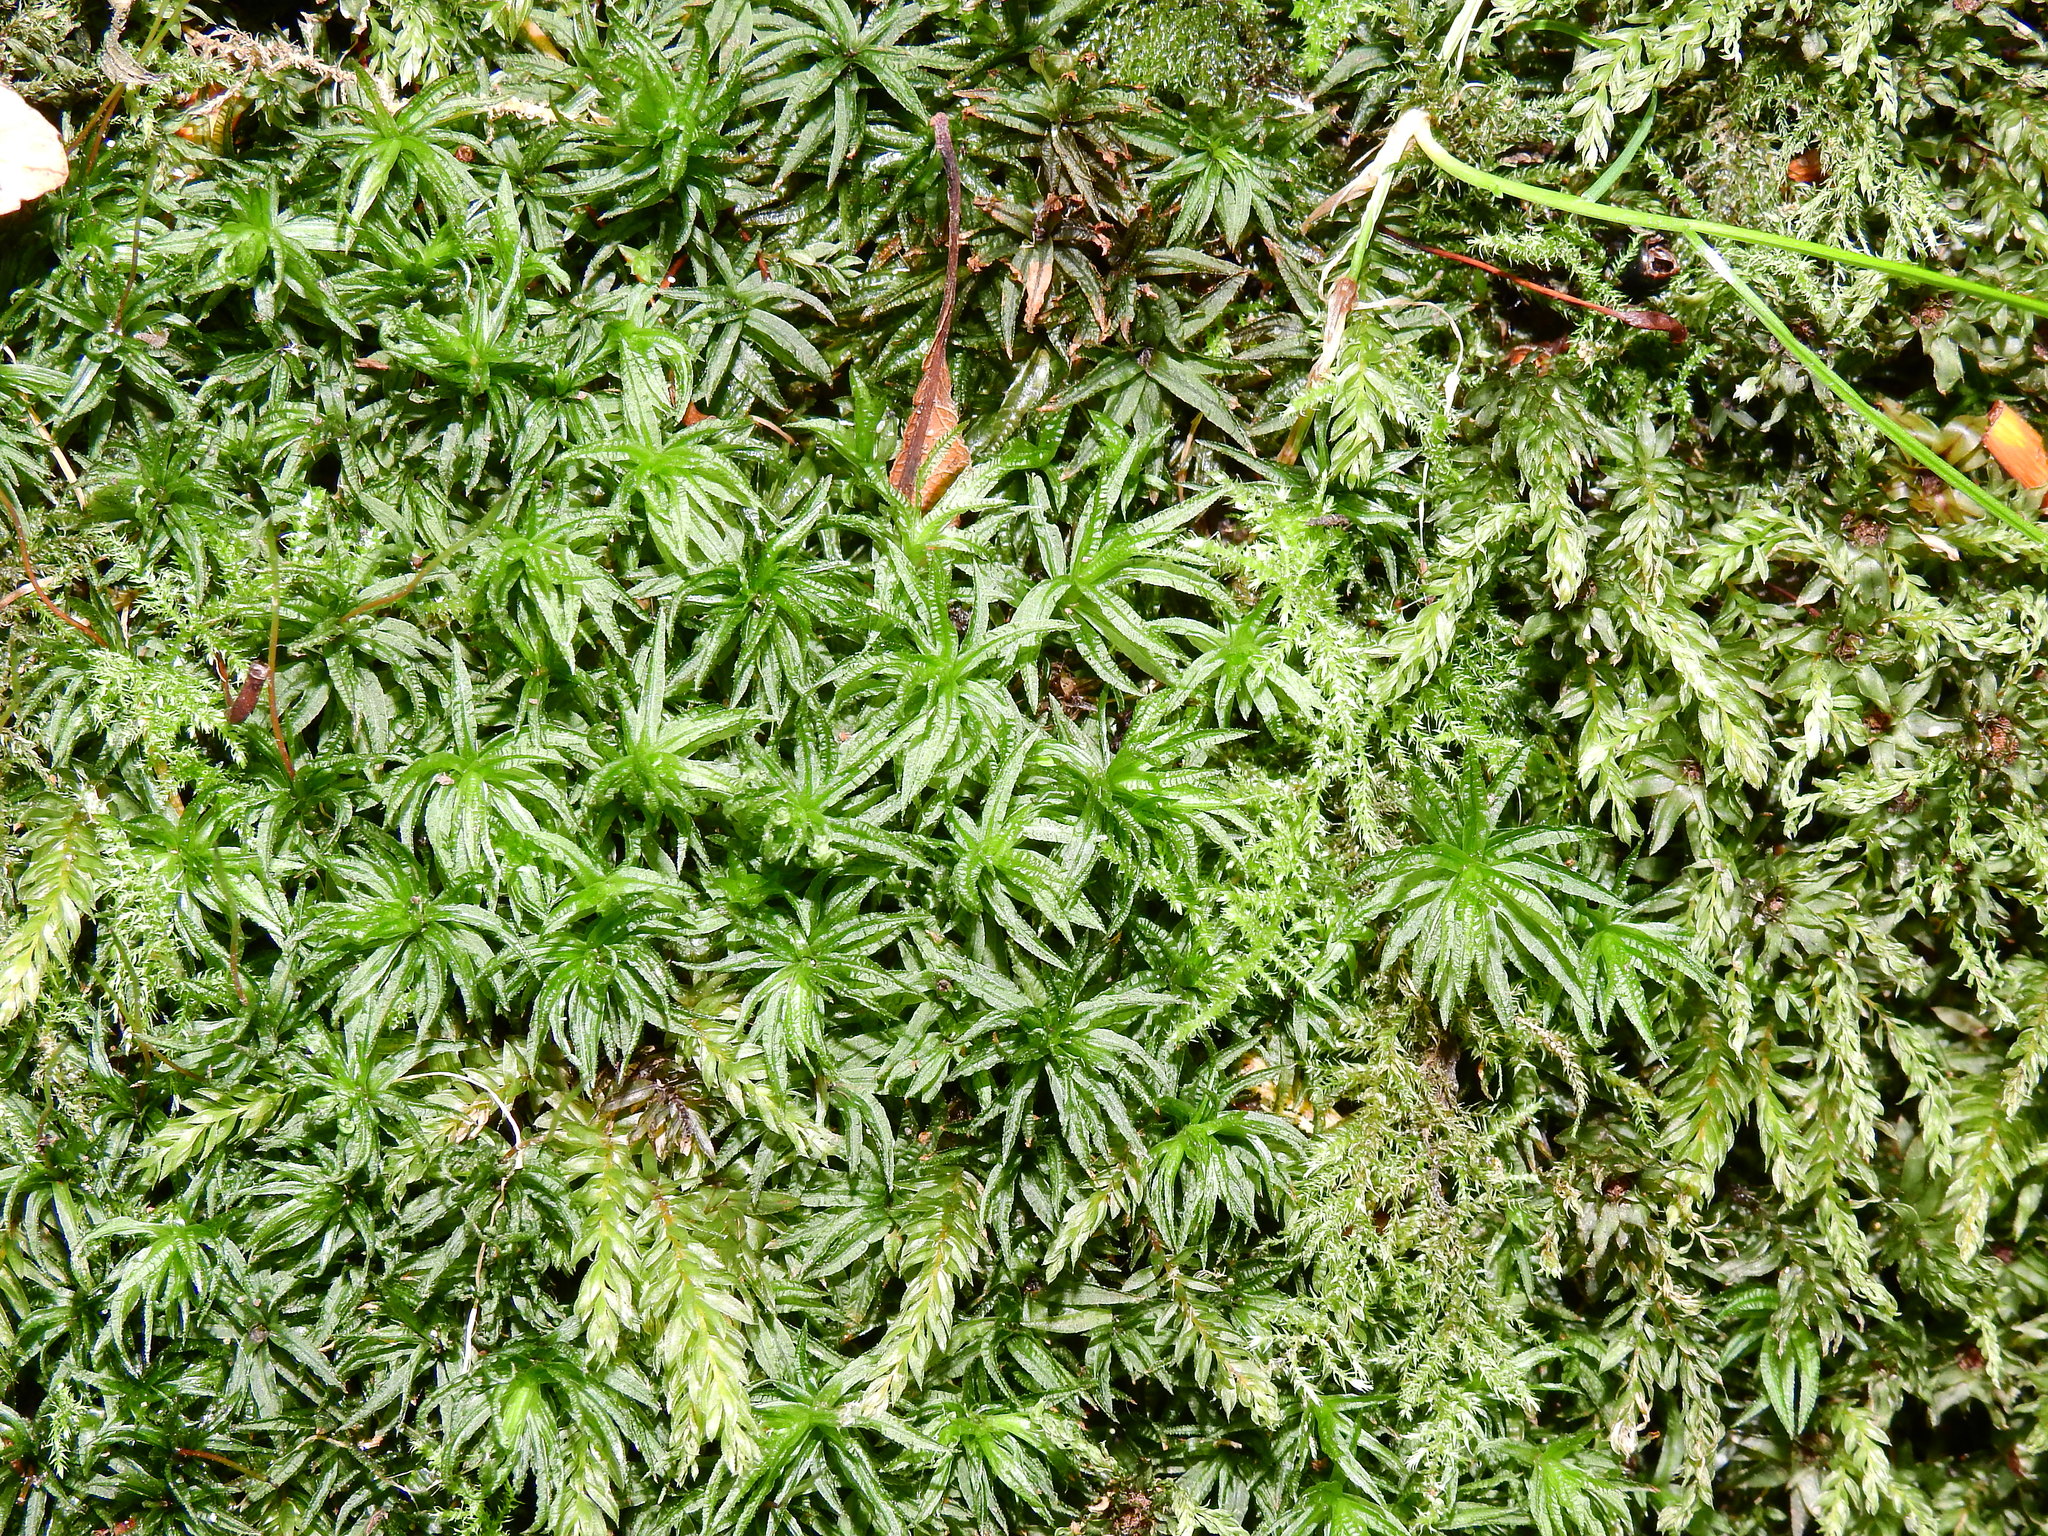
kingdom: Plantae
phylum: Bryophyta
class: Polytrichopsida
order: Polytrichales
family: Polytrichaceae
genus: Atrichum
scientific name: Atrichum undulatum
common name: Common smoothcap
